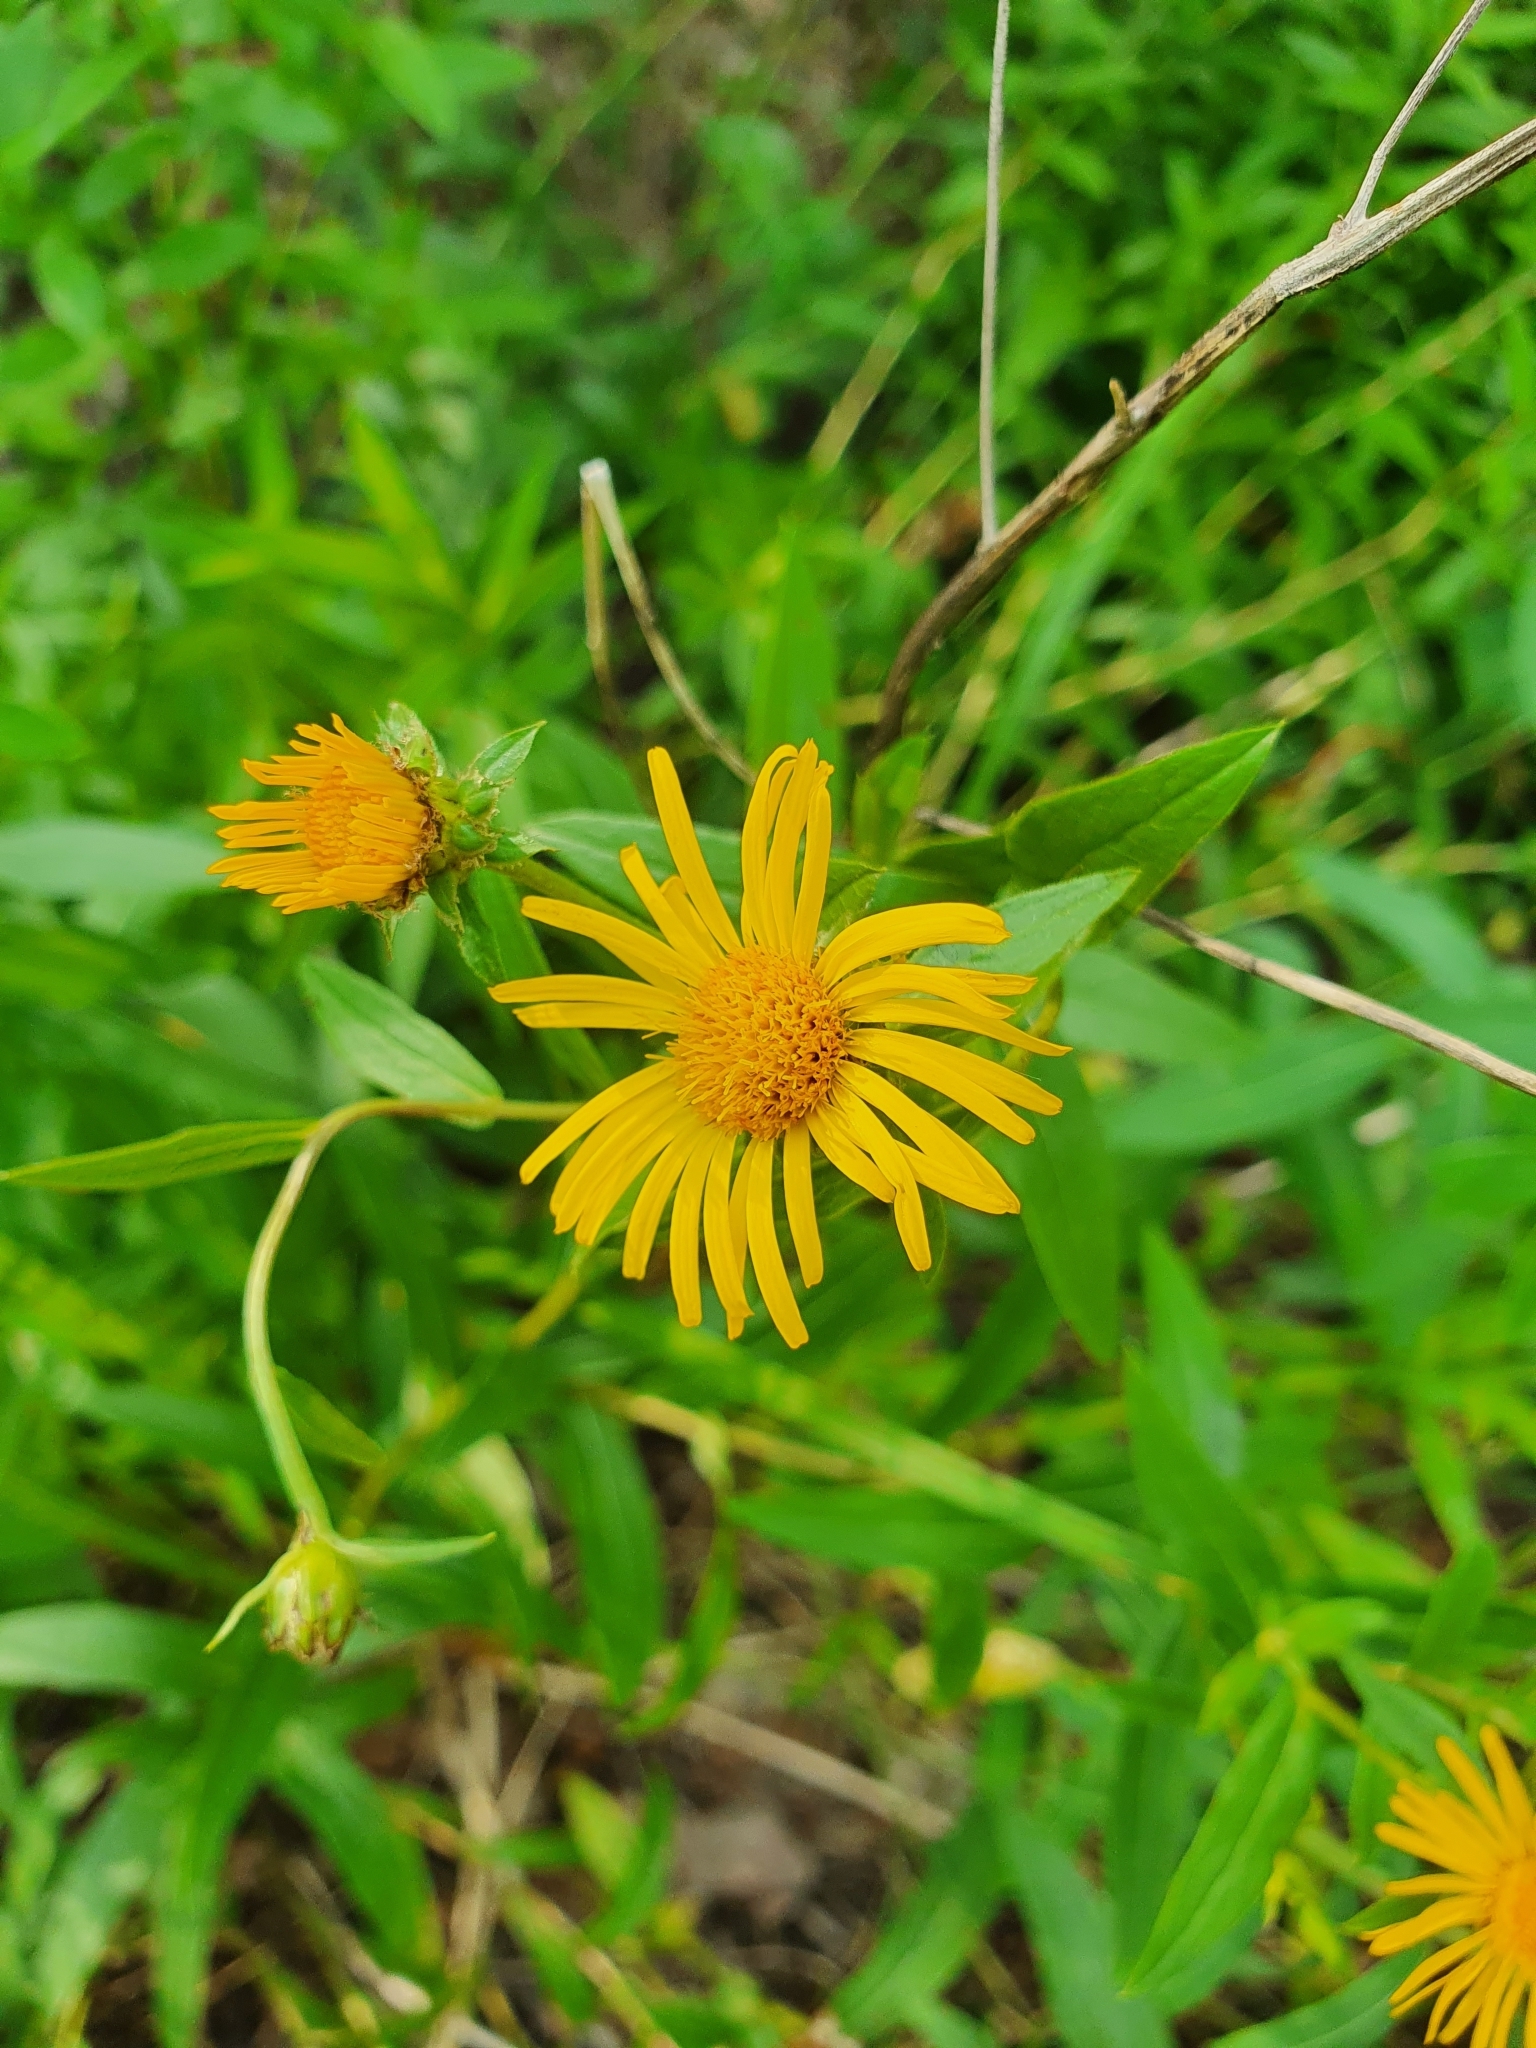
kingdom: Plantae
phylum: Tracheophyta
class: Magnoliopsida
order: Asterales
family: Asteraceae
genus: Pentanema
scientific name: Pentanema salicinum
